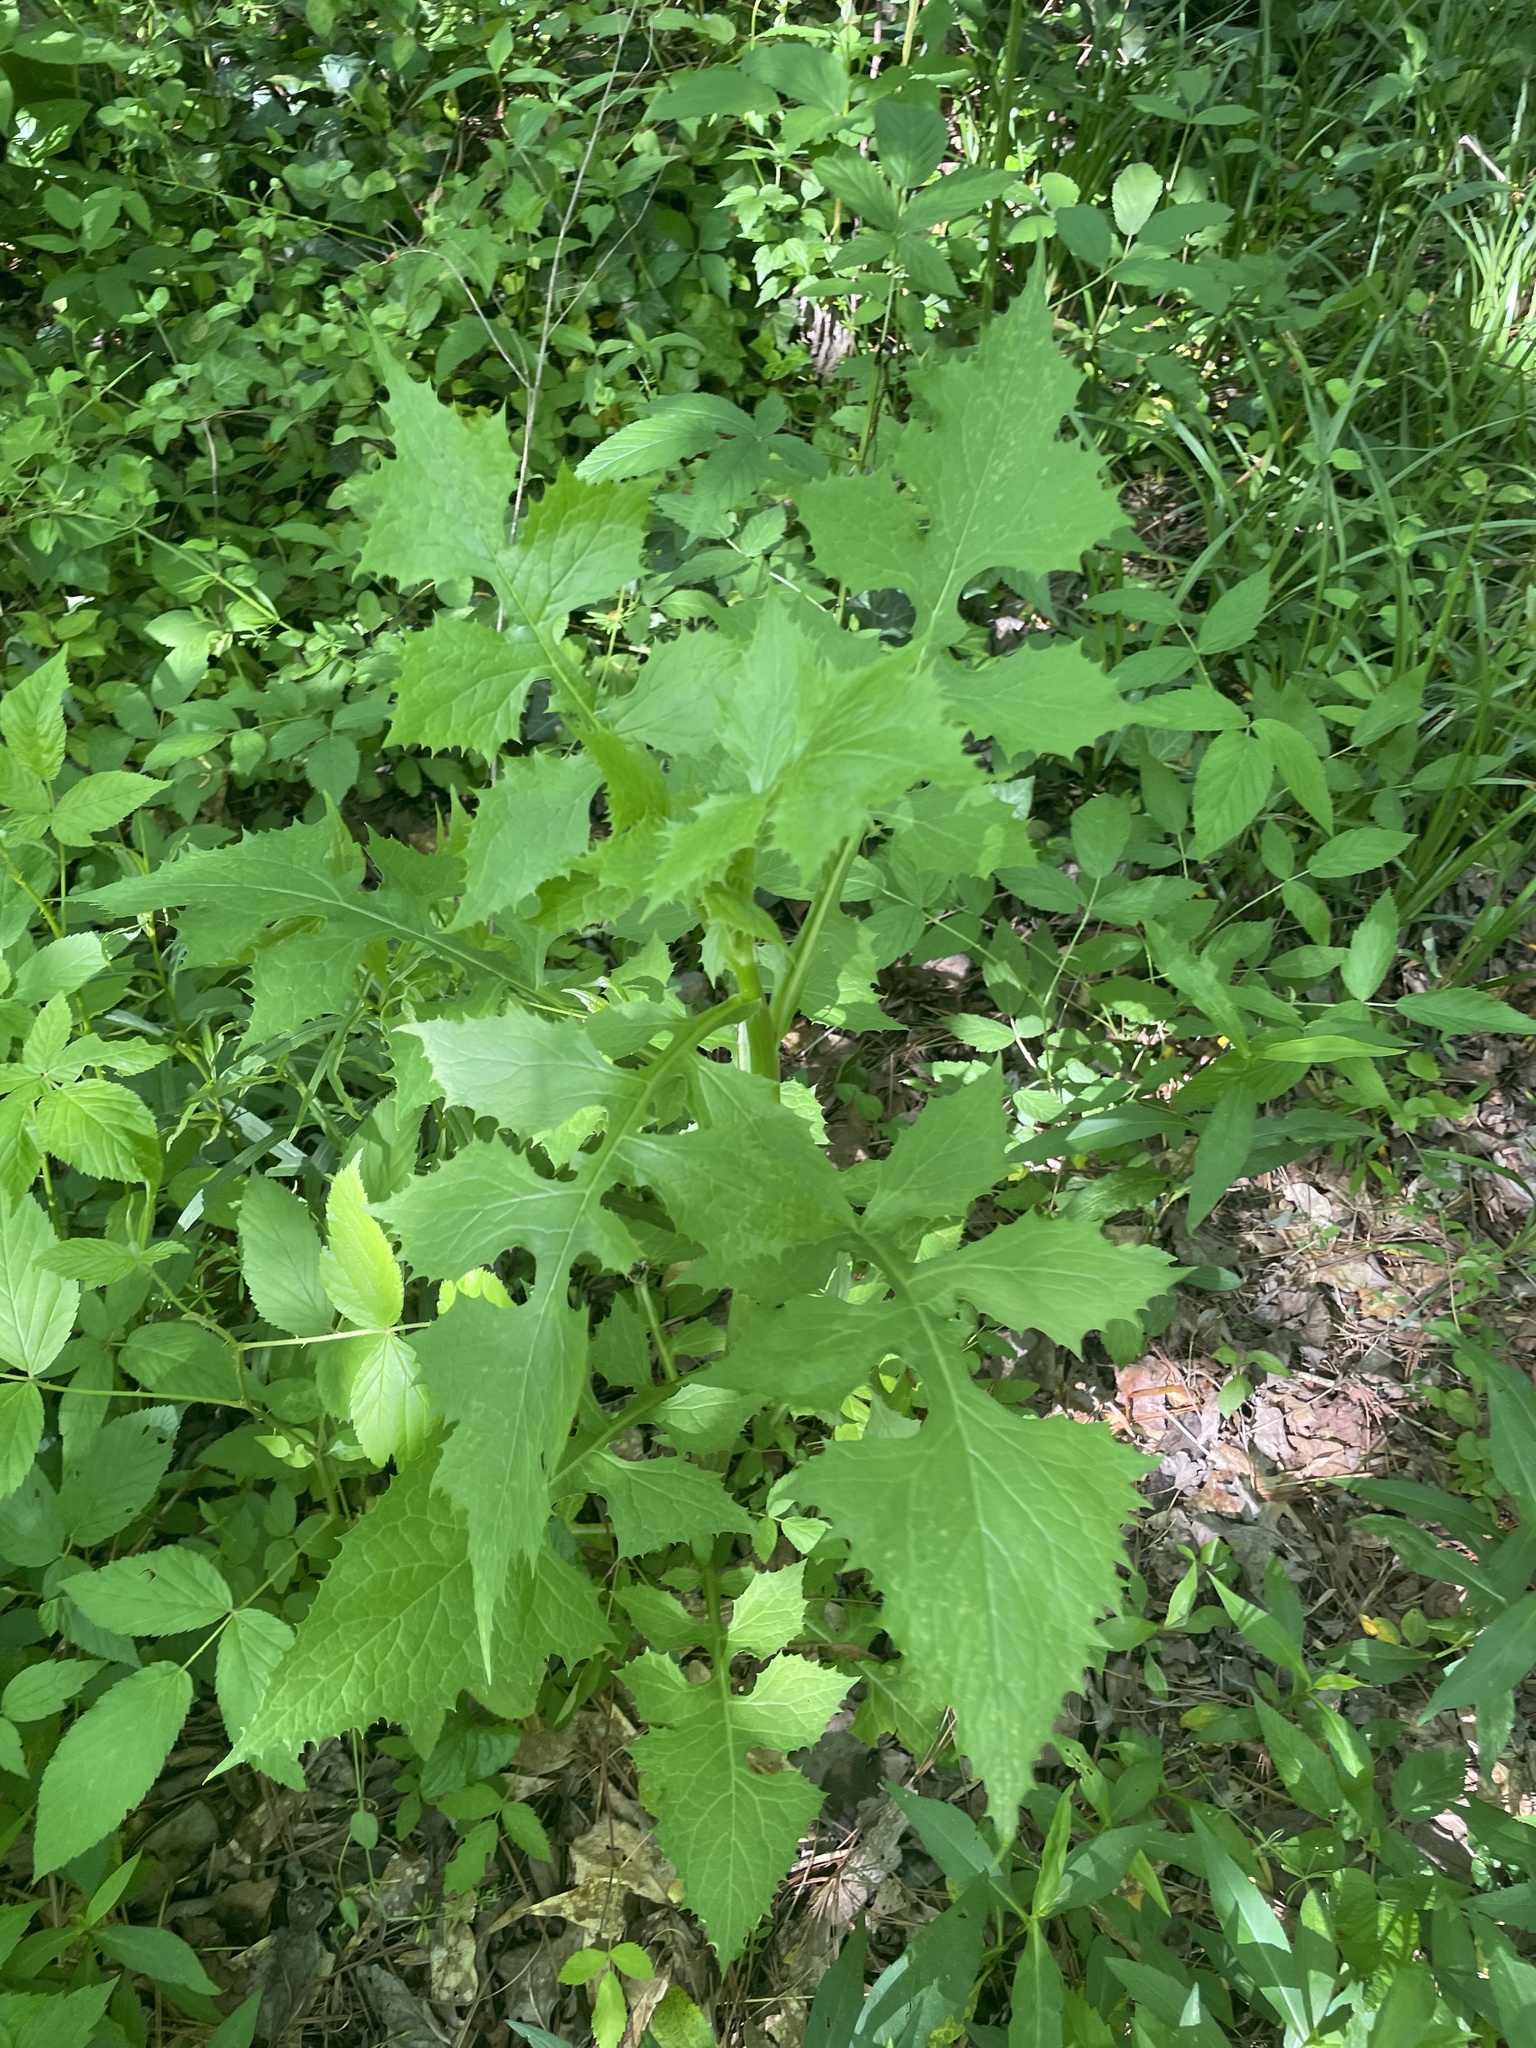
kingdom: Plantae
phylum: Tracheophyta
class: Magnoliopsida
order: Asterales
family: Asteraceae
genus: Lactuca
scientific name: Lactuca floridana
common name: Woodland lettuce
